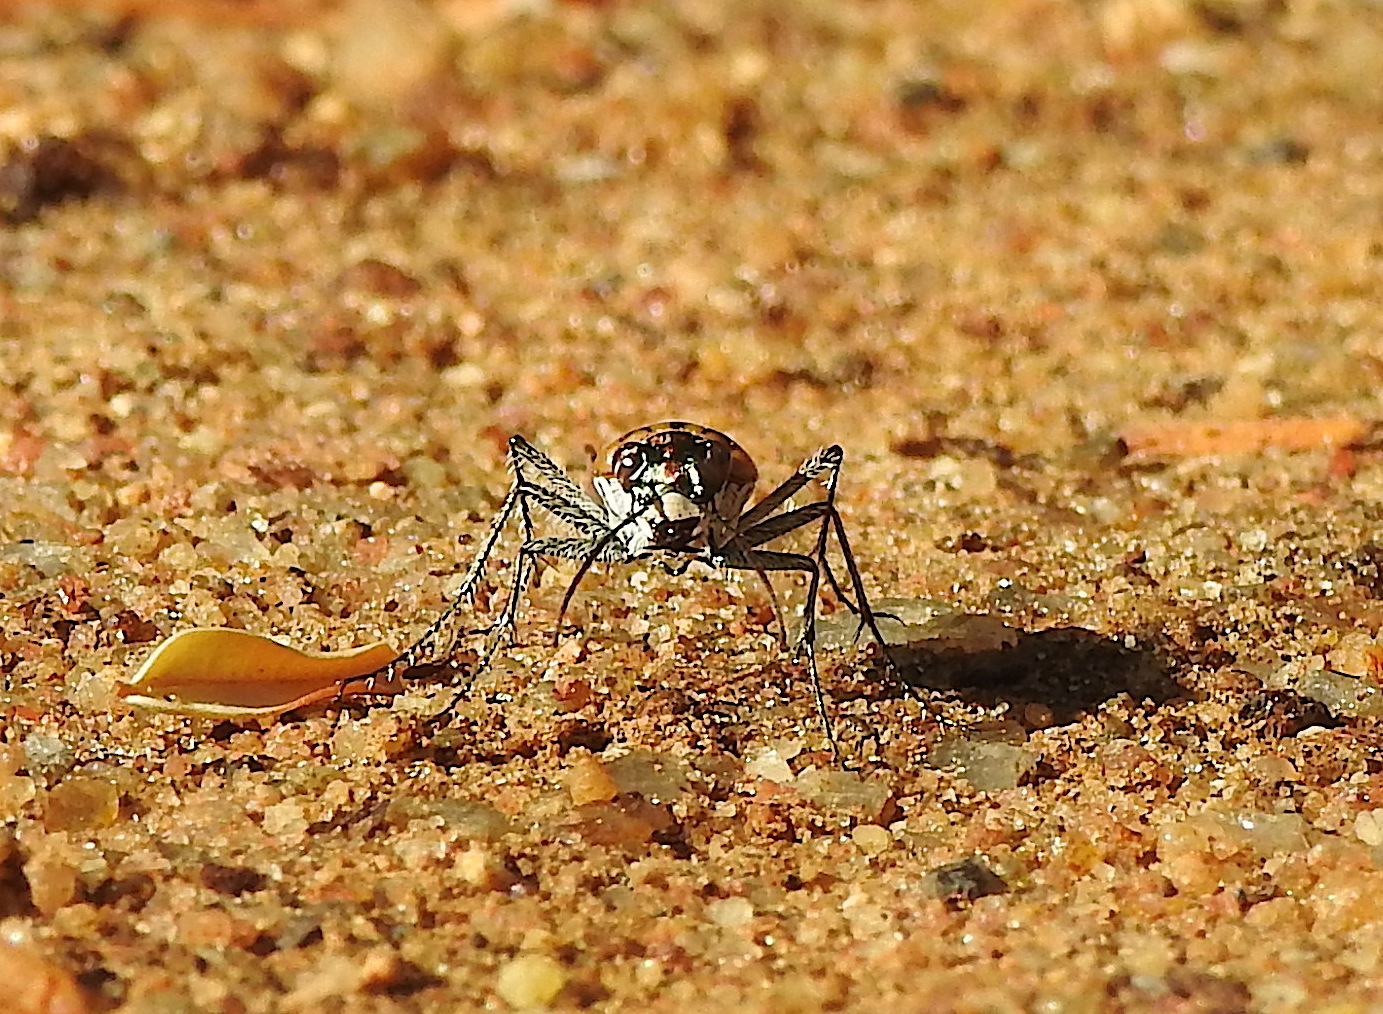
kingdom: Animalia
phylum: Arthropoda
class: Insecta
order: Coleoptera
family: Carabidae
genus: Lophyra
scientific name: Lophyra catena
